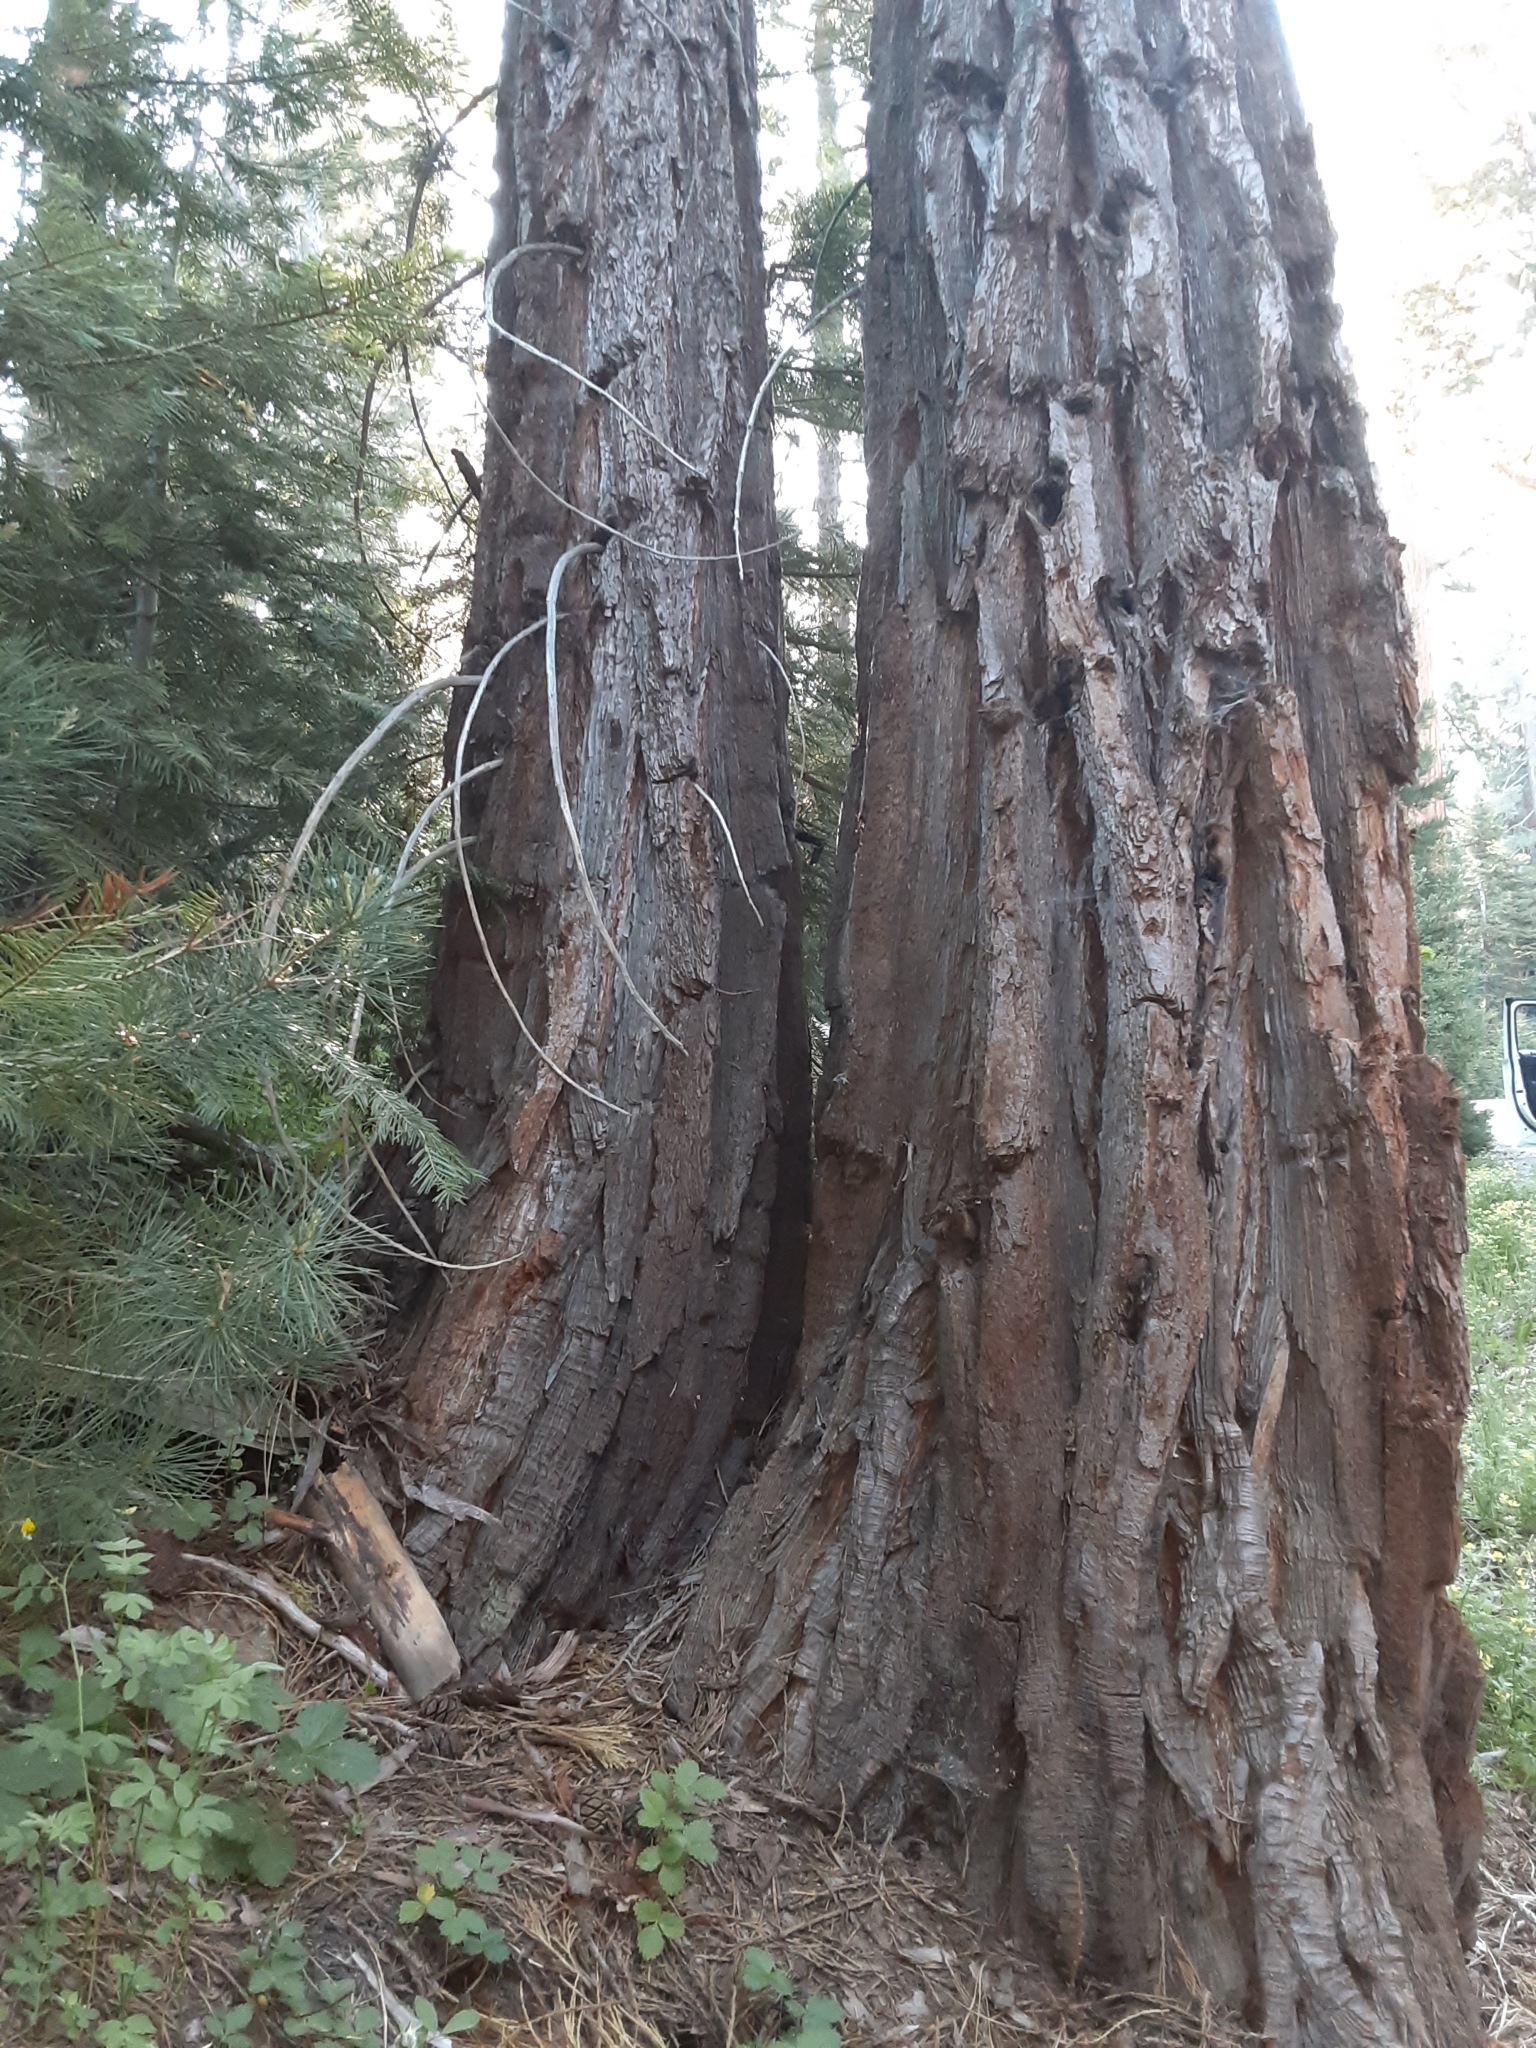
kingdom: Plantae
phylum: Tracheophyta
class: Pinopsida
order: Pinales
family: Cupressaceae
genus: Sequoiadendron
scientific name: Sequoiadendron giganteum
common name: Wellingtonia
